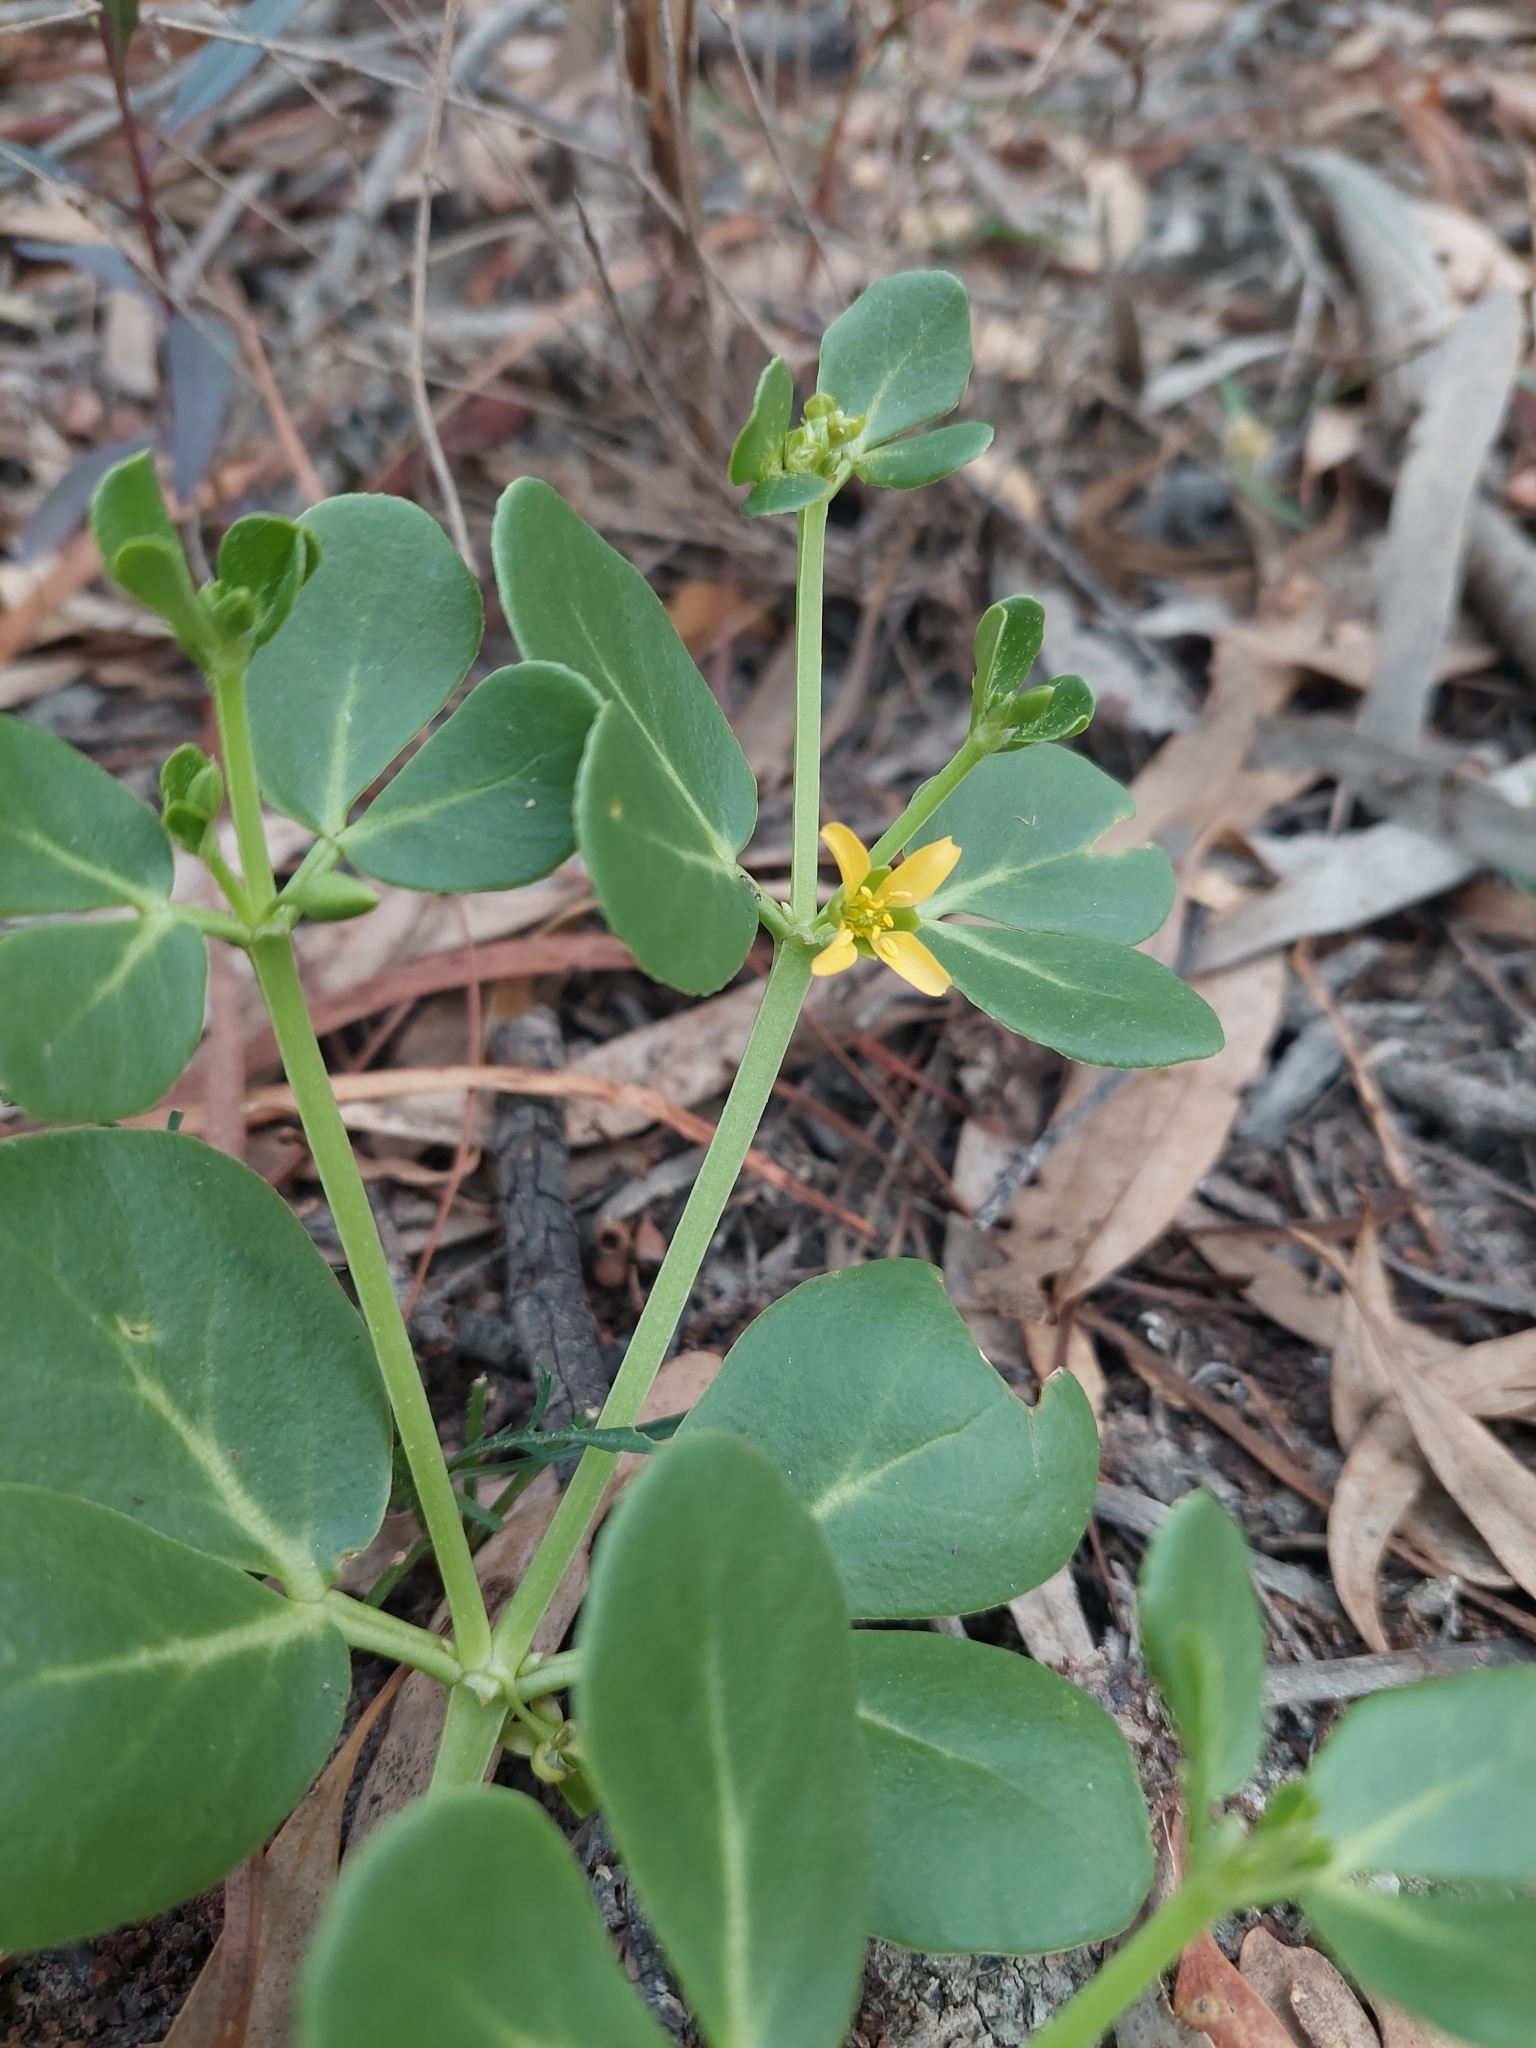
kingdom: Plantae
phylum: Tracheophyta
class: Magnoliopsida
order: Zygophyllales
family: Zygophyllaceae
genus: Roepera
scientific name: Roepera glauca
